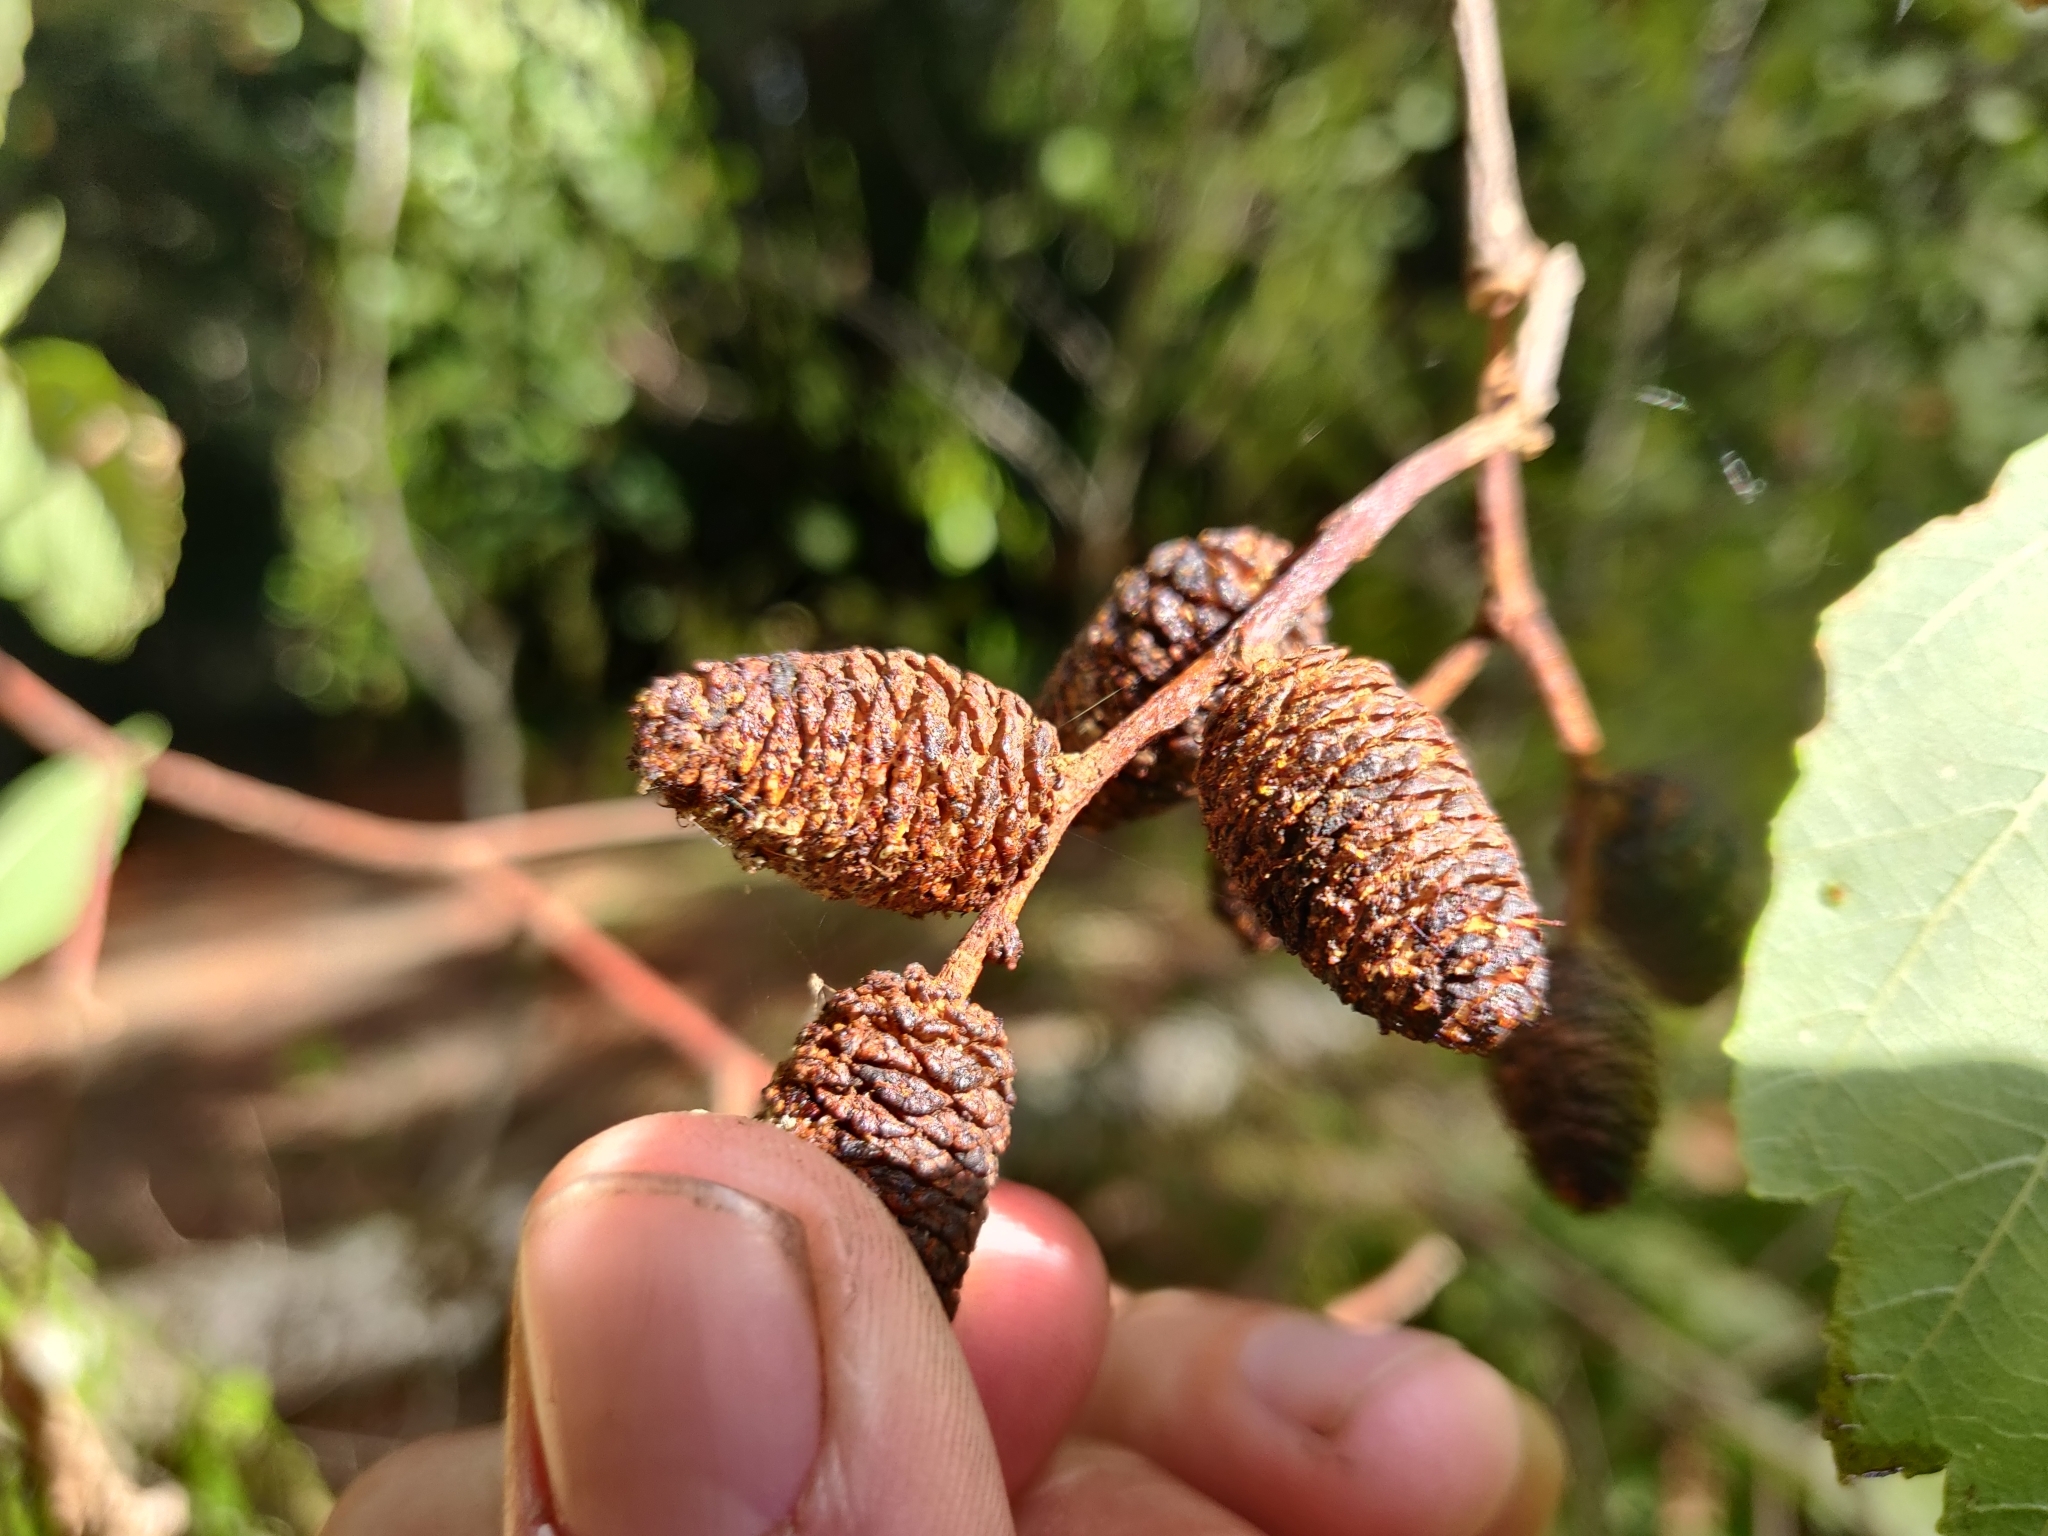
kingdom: Plantae
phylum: Tracheophyta
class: Magnoliopsida
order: Fagales
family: Betulaceae
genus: Alnus
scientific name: Alnus rubra
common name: Red alder
